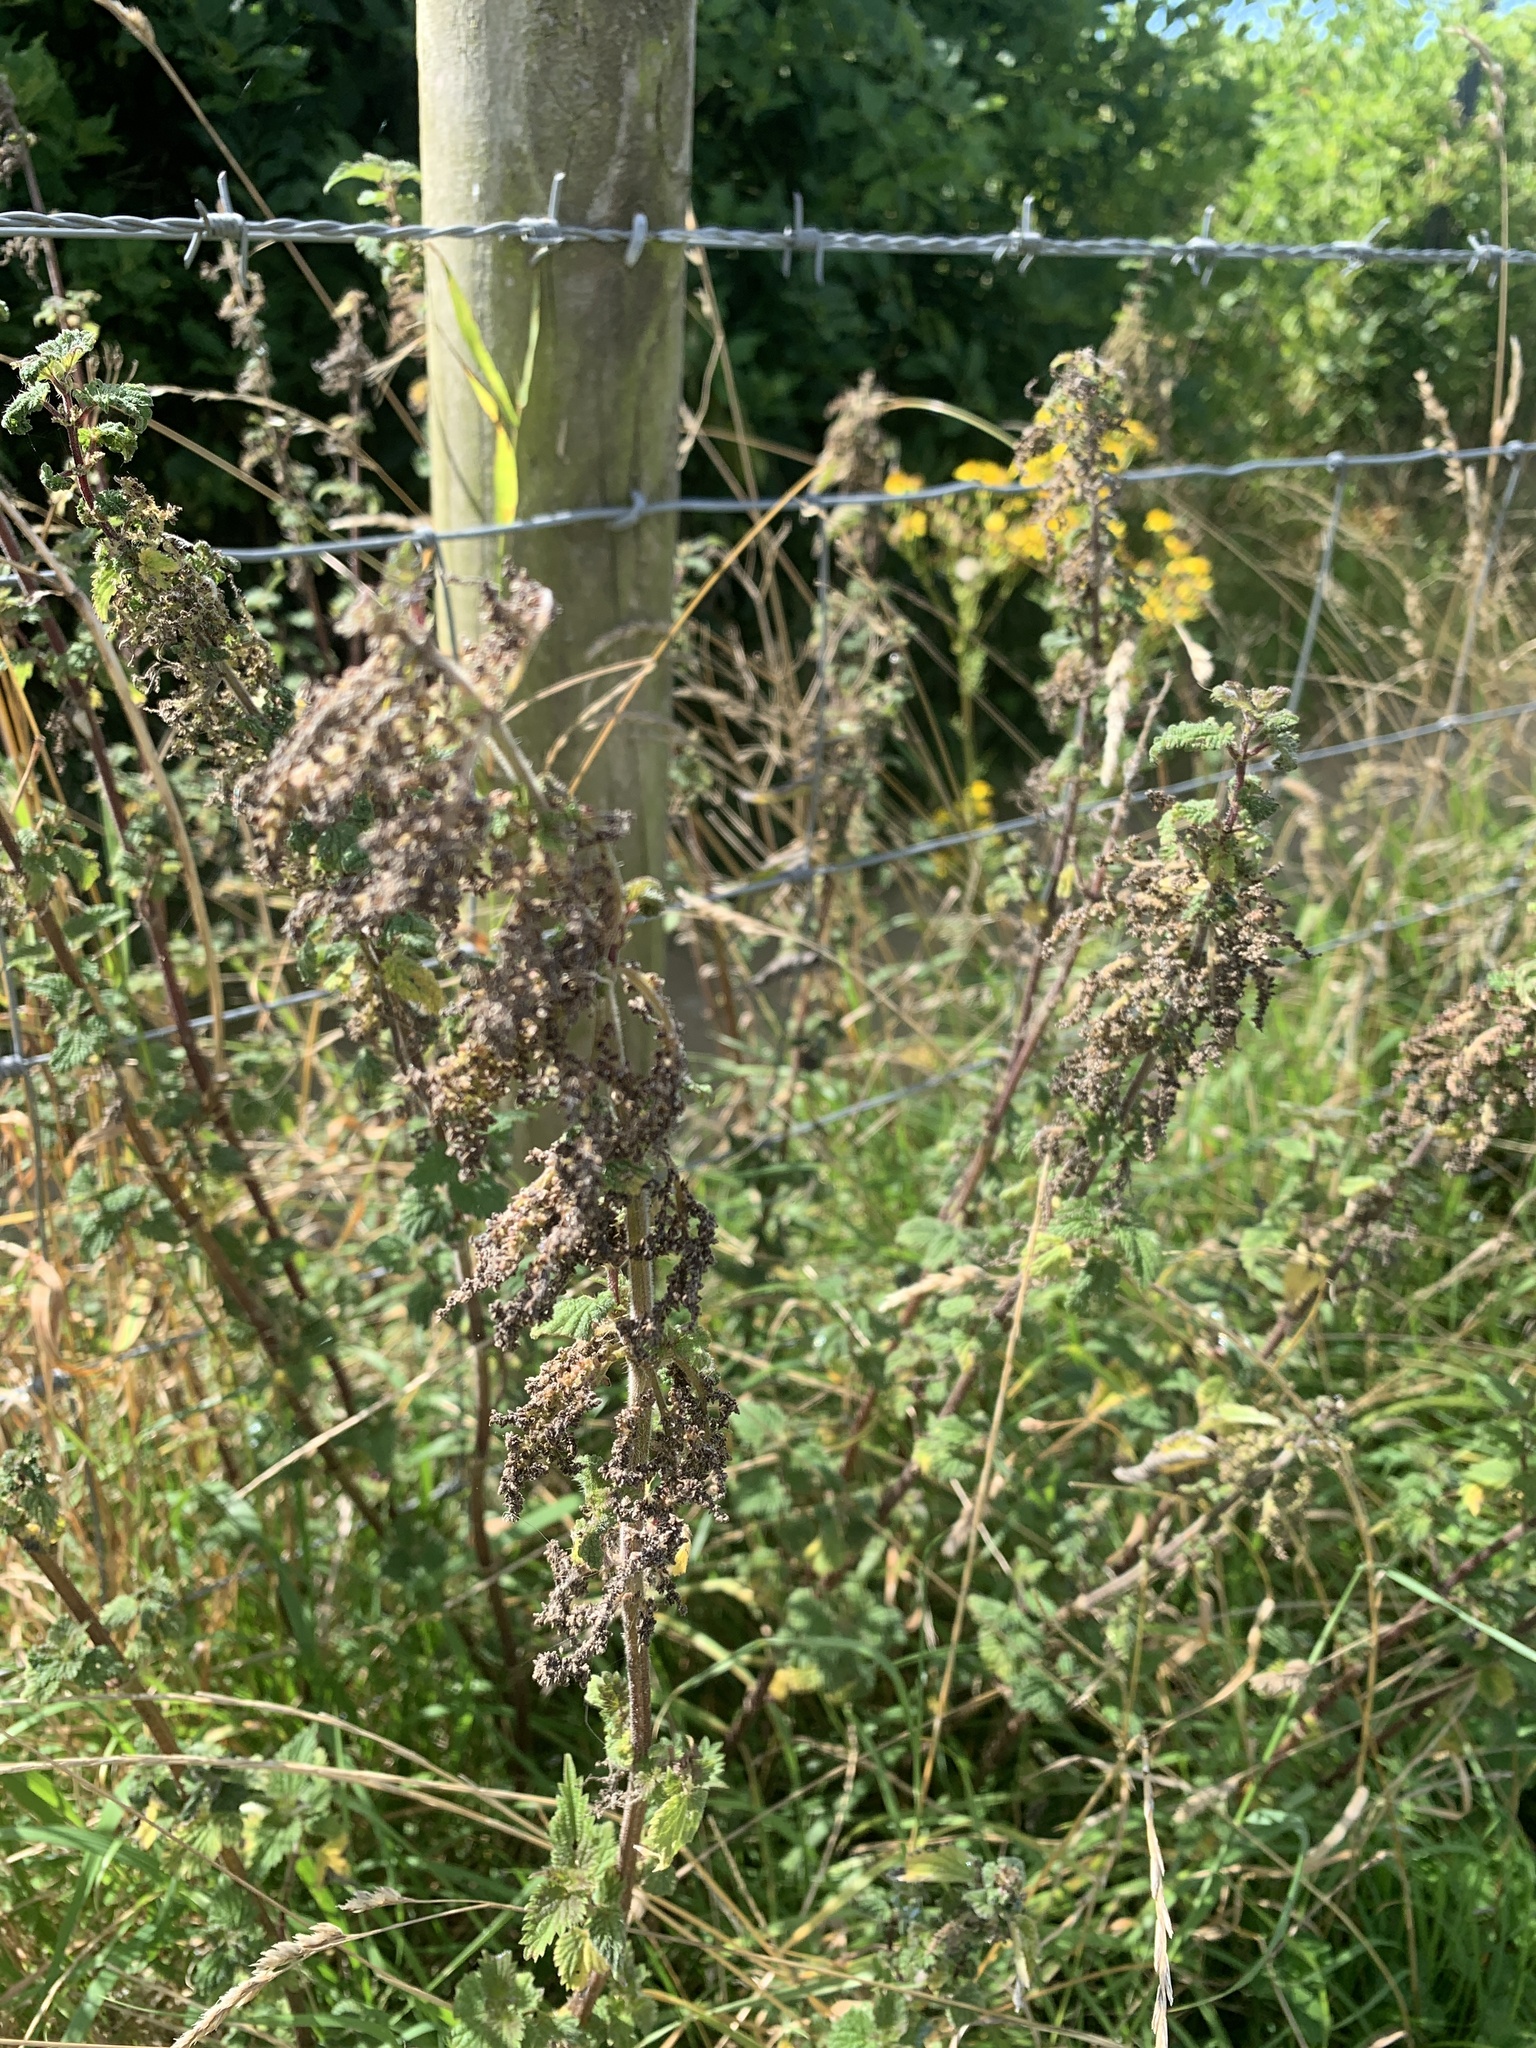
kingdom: Plantae
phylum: Tracheophyta
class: Magnoliopsida
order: Rosales
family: Urticaceae
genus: Urtica
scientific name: Urtica dioica
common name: Common nettle
